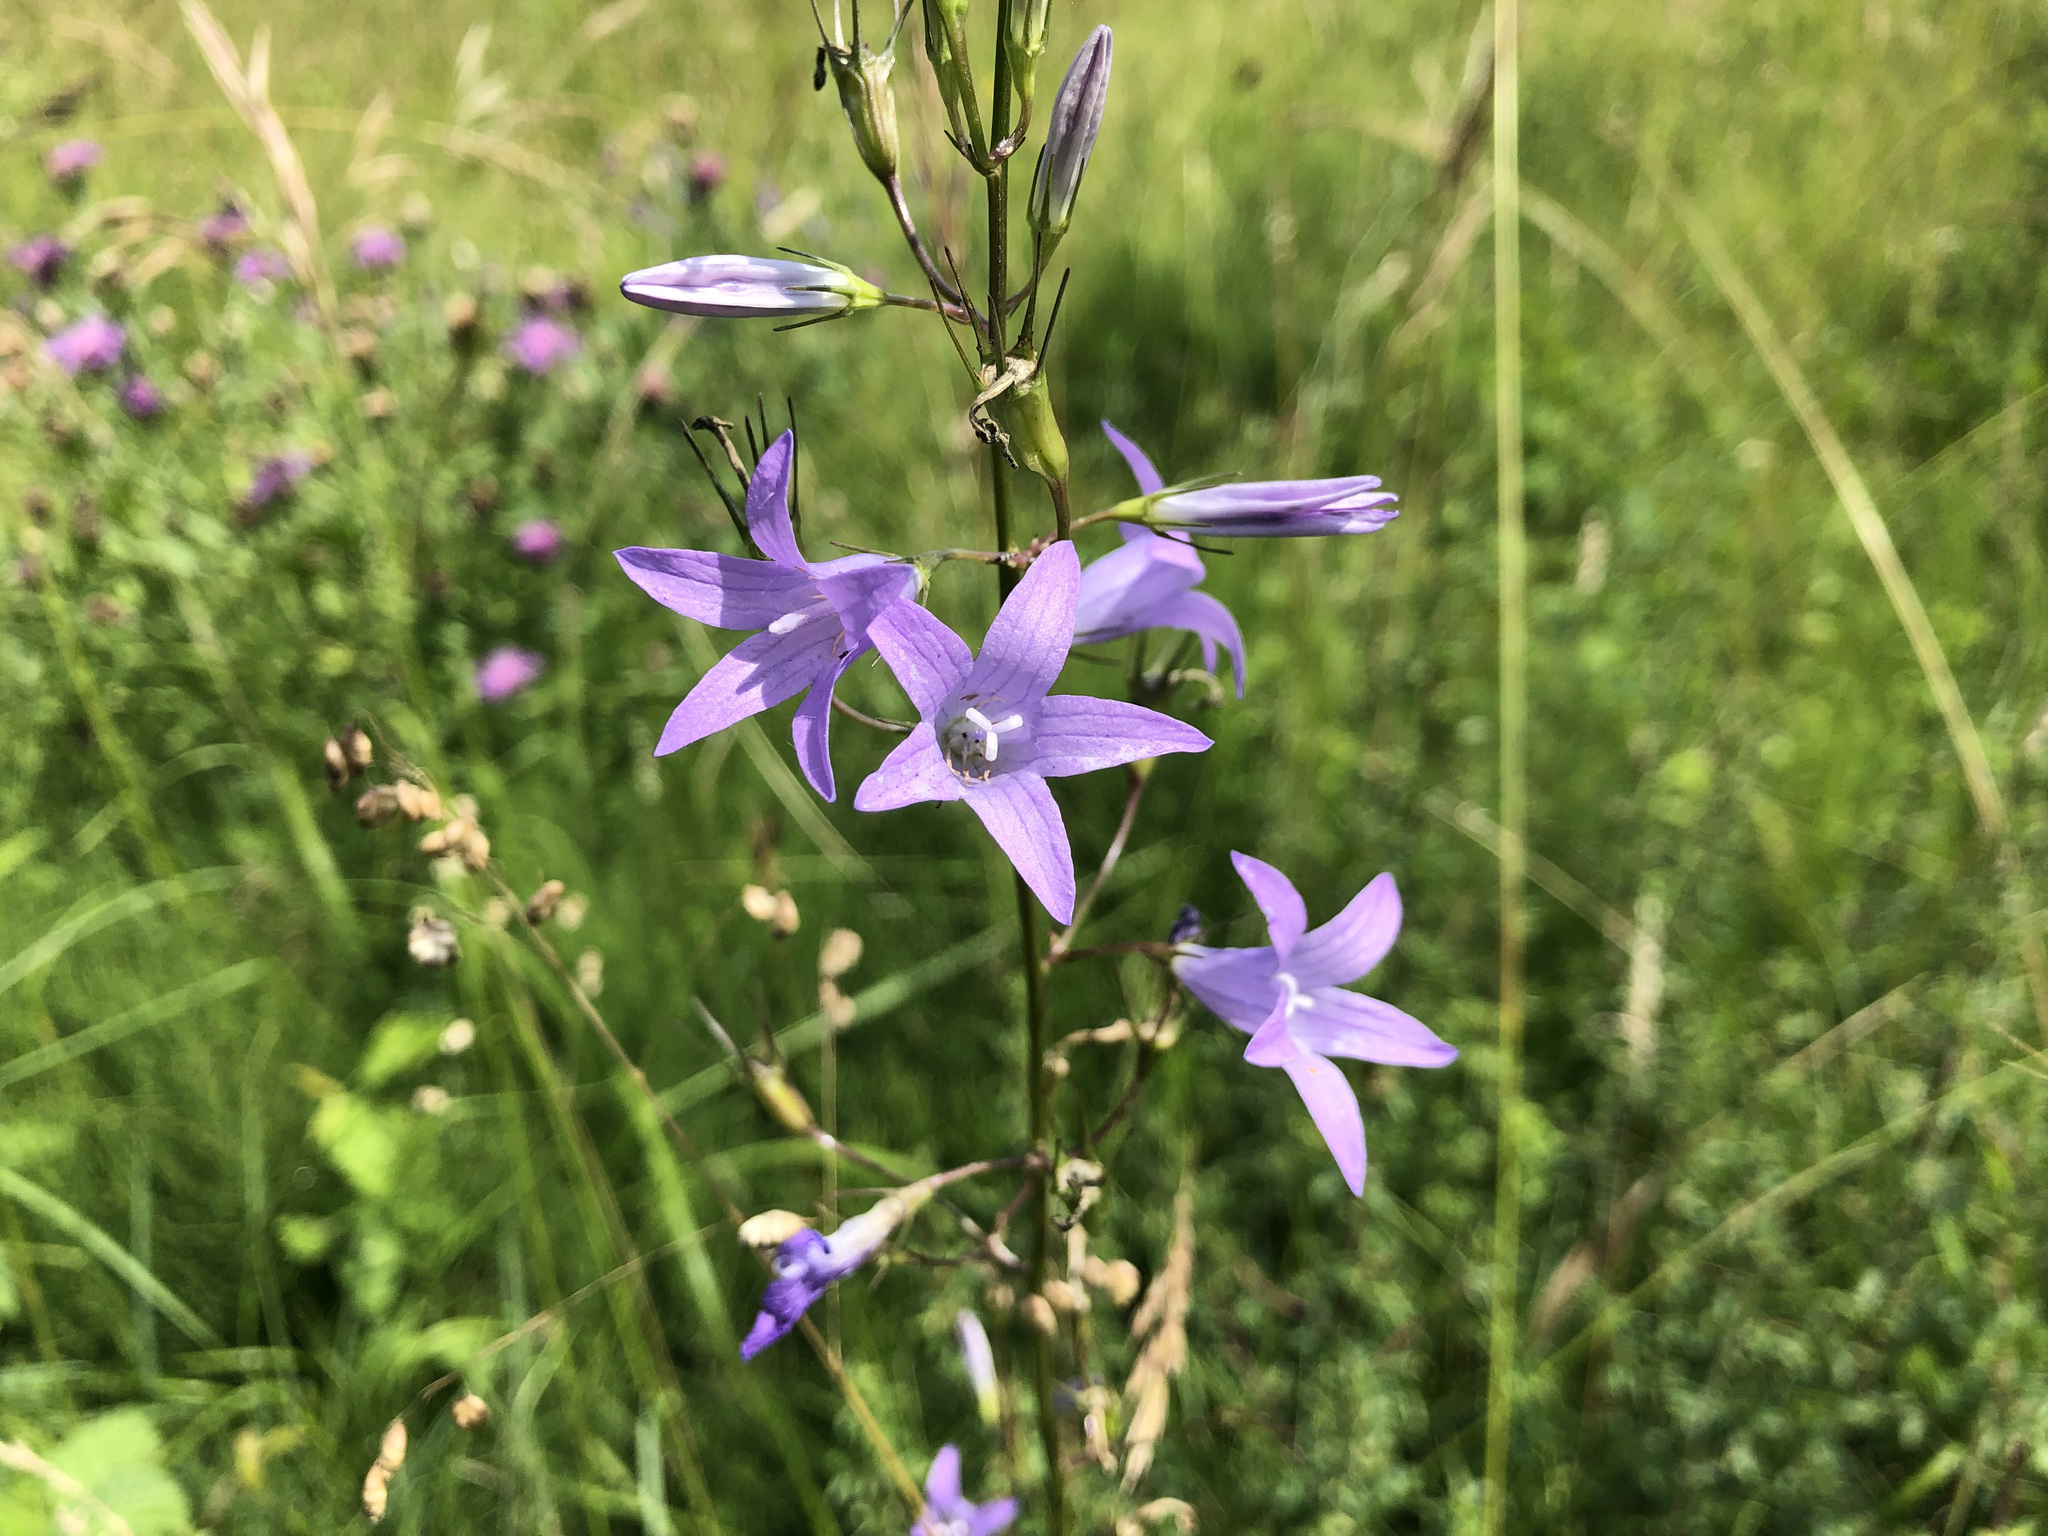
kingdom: Plantae
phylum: Tracheophyta
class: Magnoliopsida
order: Asterales
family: Campanulaceae
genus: Campanula
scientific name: Campanula rapunculus
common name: Rampion bellflower
